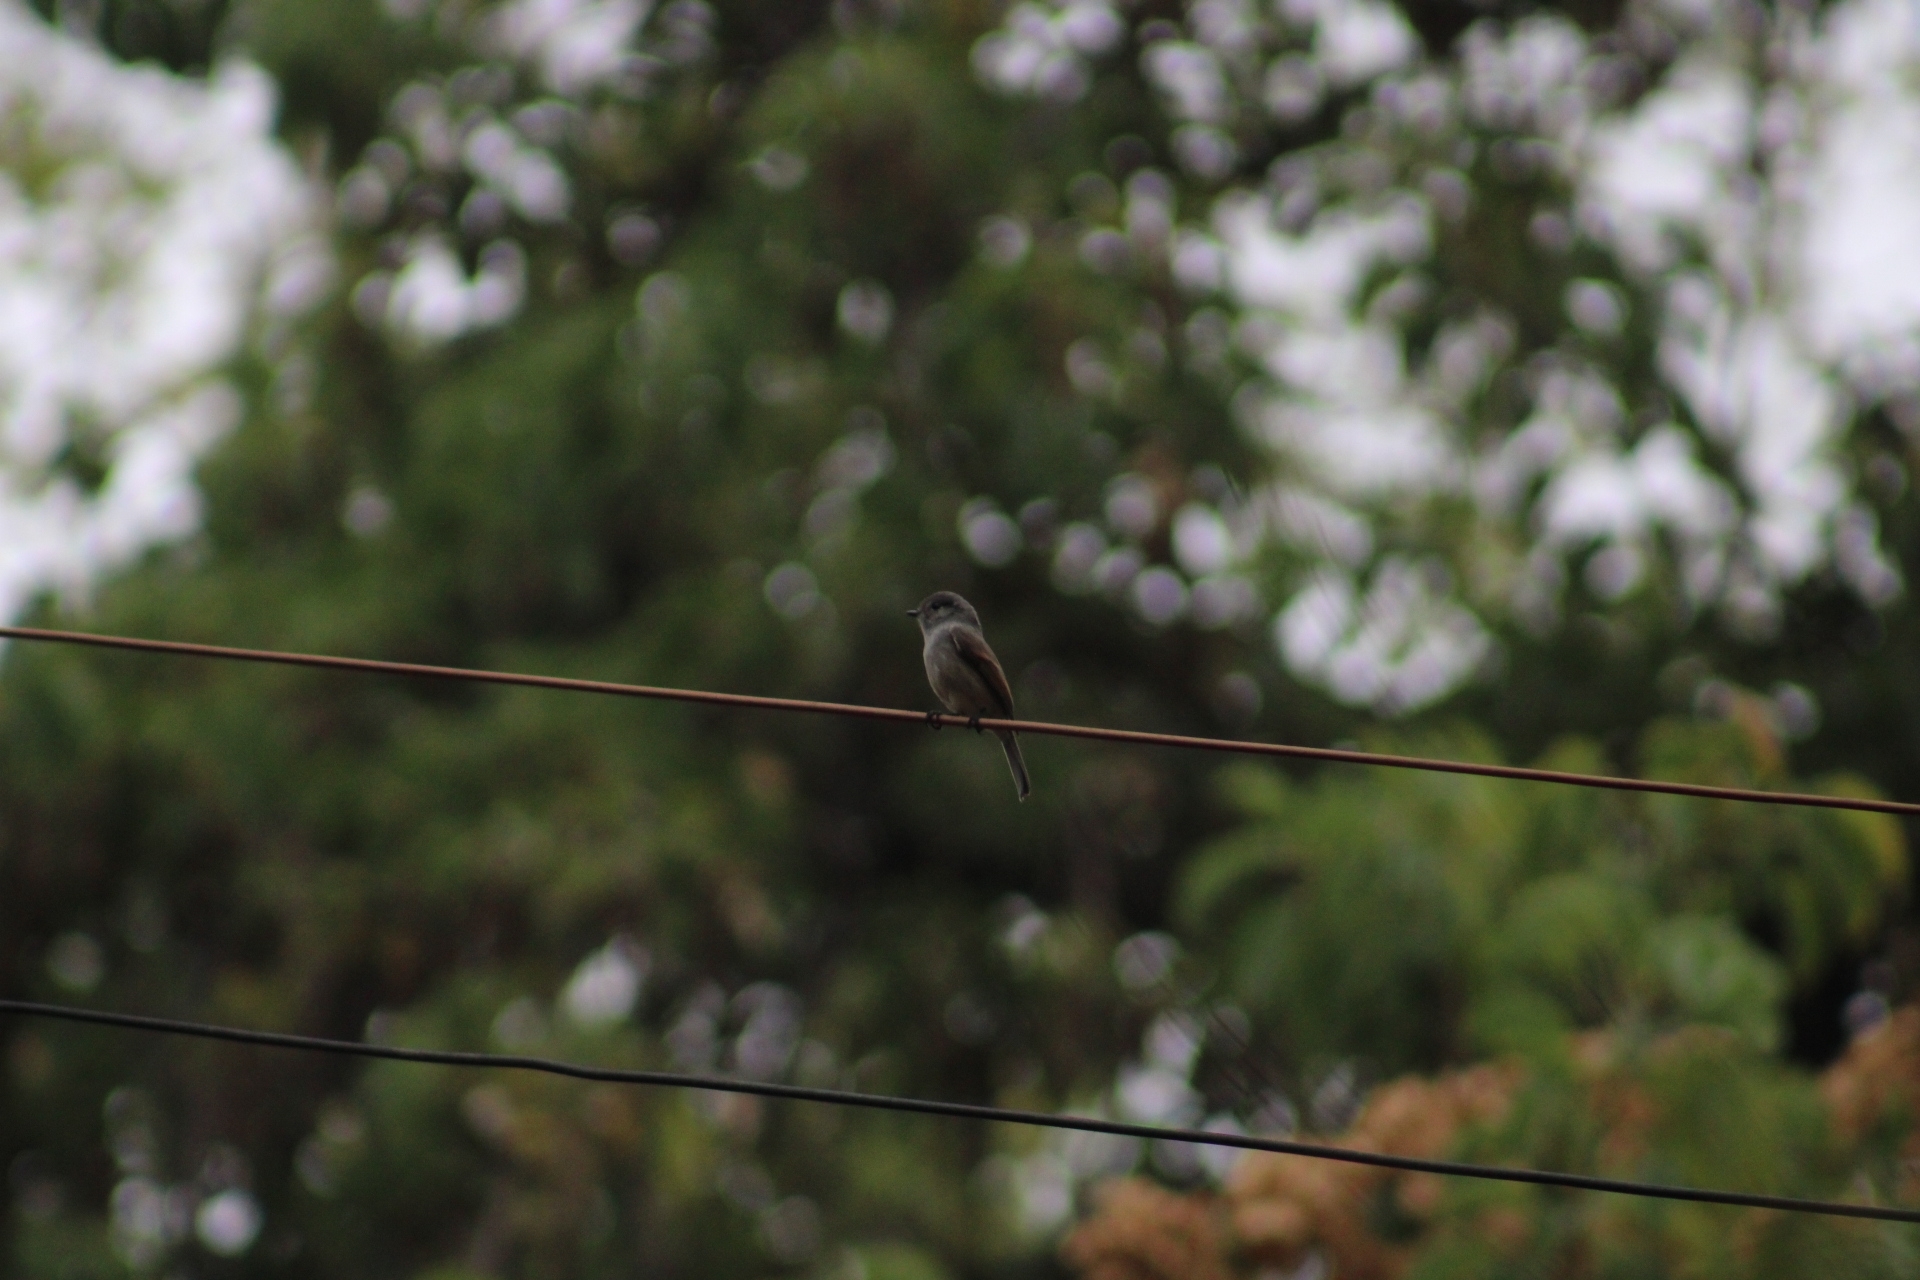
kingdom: Animalia
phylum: Chordata
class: Aves
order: Passeriformes
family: Tyrannidae
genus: Colorhamphus
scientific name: Colorhamphus parvirostris
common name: Patagonian tyrant
